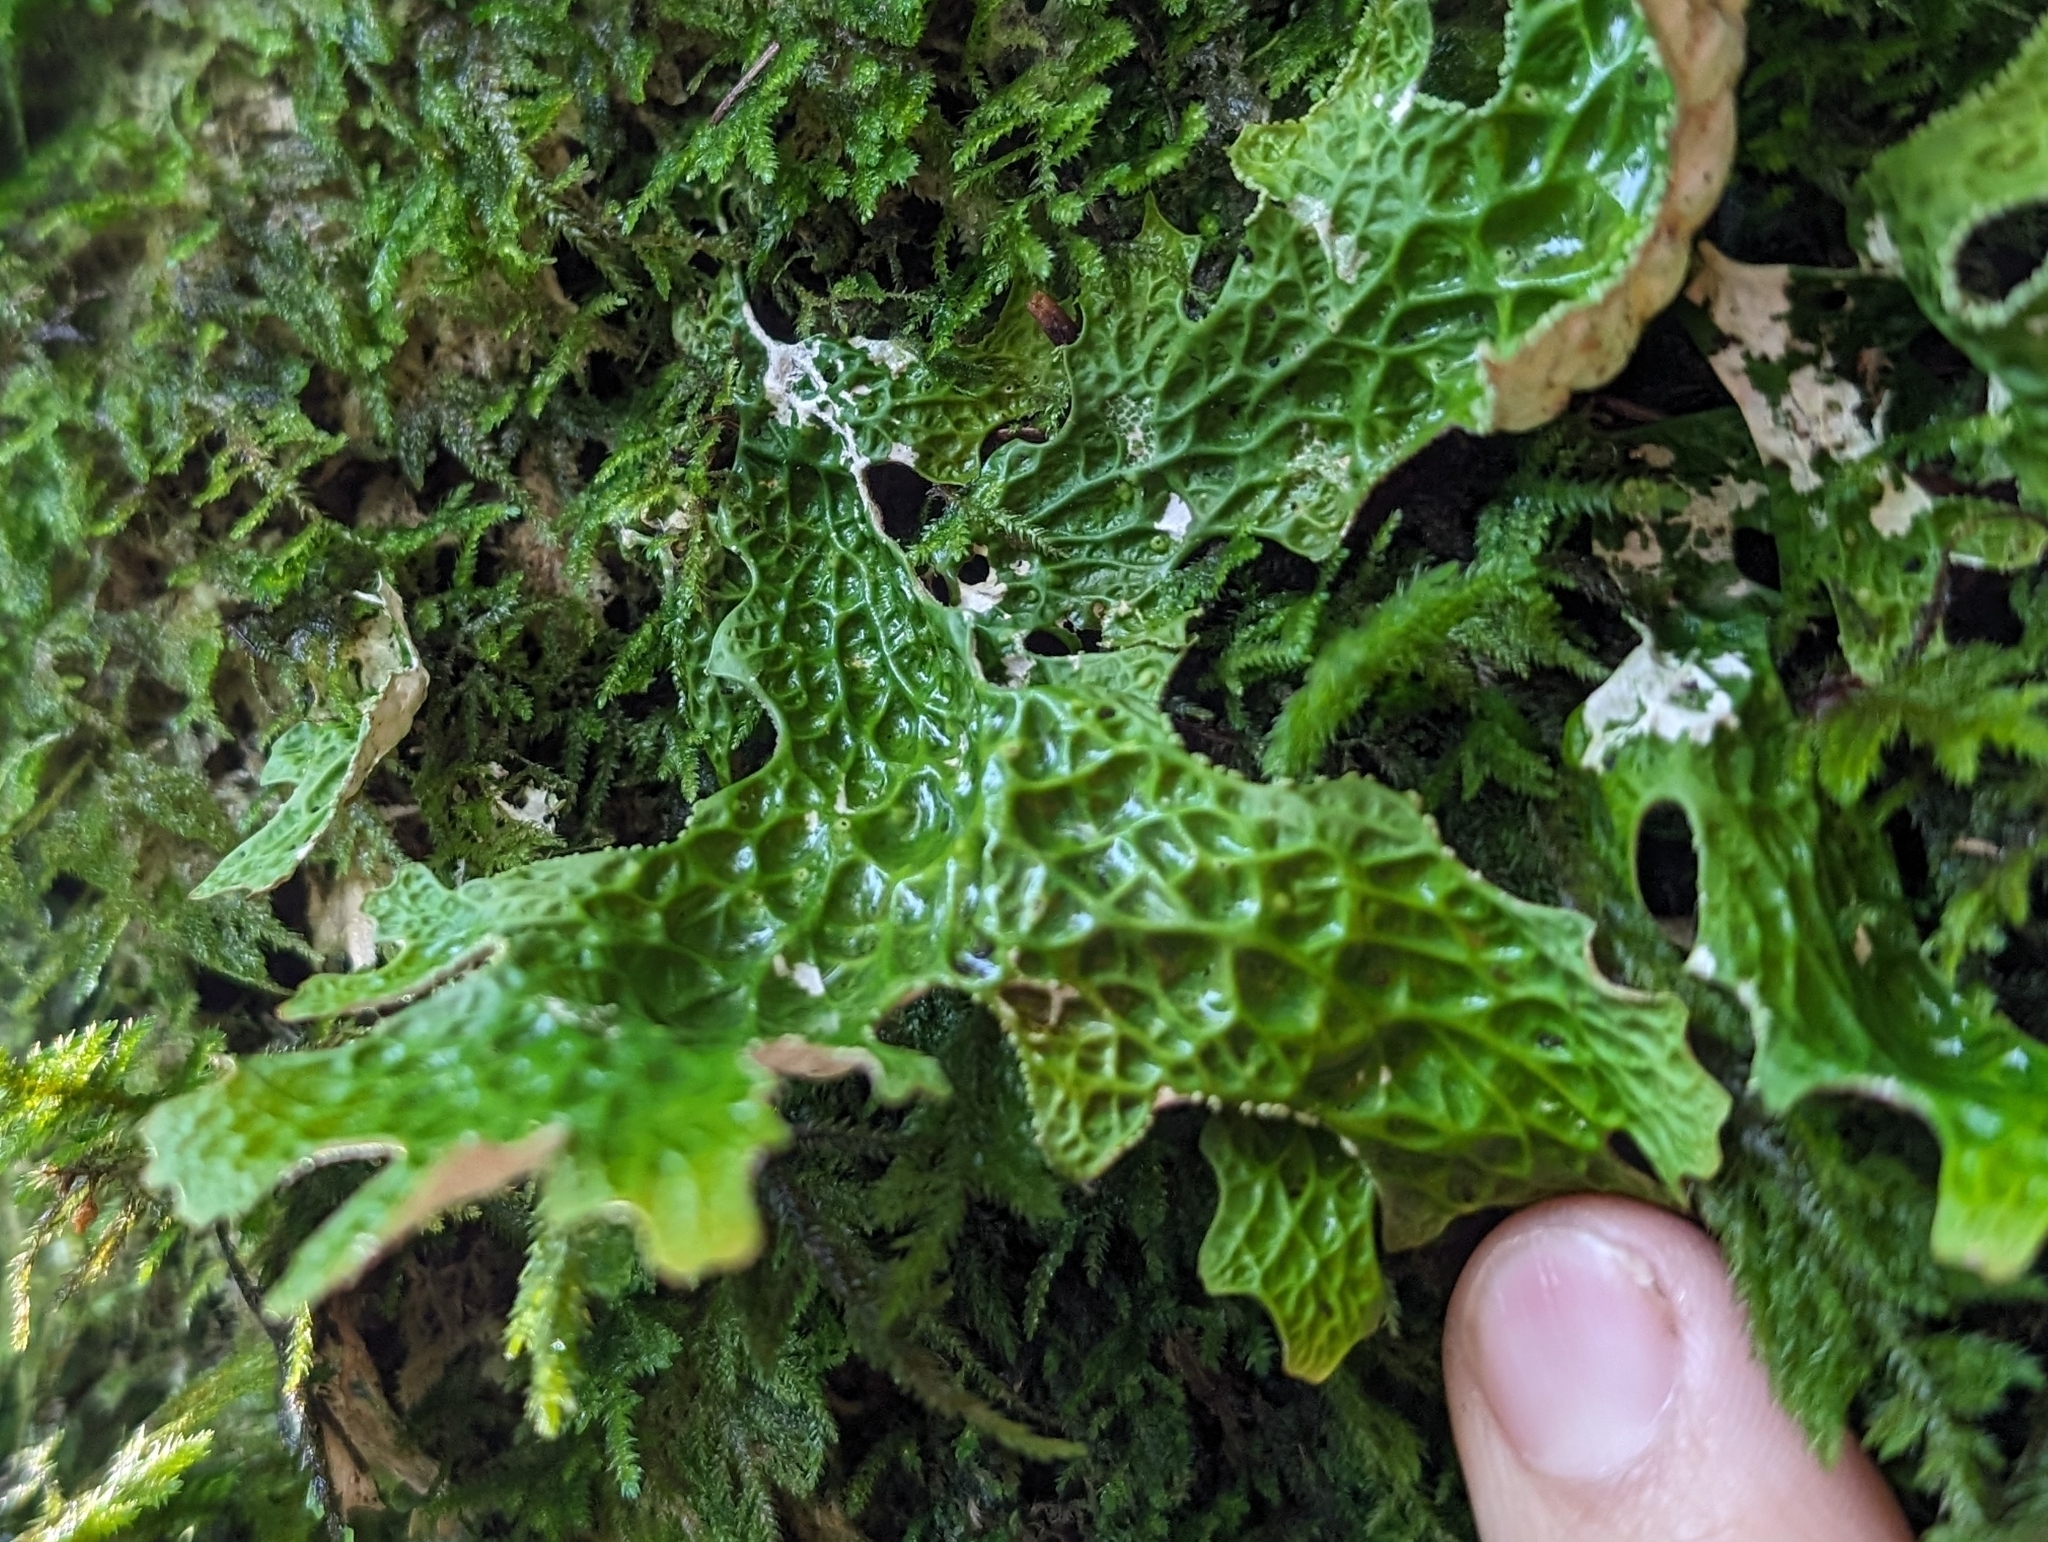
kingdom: Fungi
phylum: Ascomycota
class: Lecanoromycetes
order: Peltigerales
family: Lobariaceae
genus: Lobaria
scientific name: Lobaria pulmonaria
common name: Lungwort
